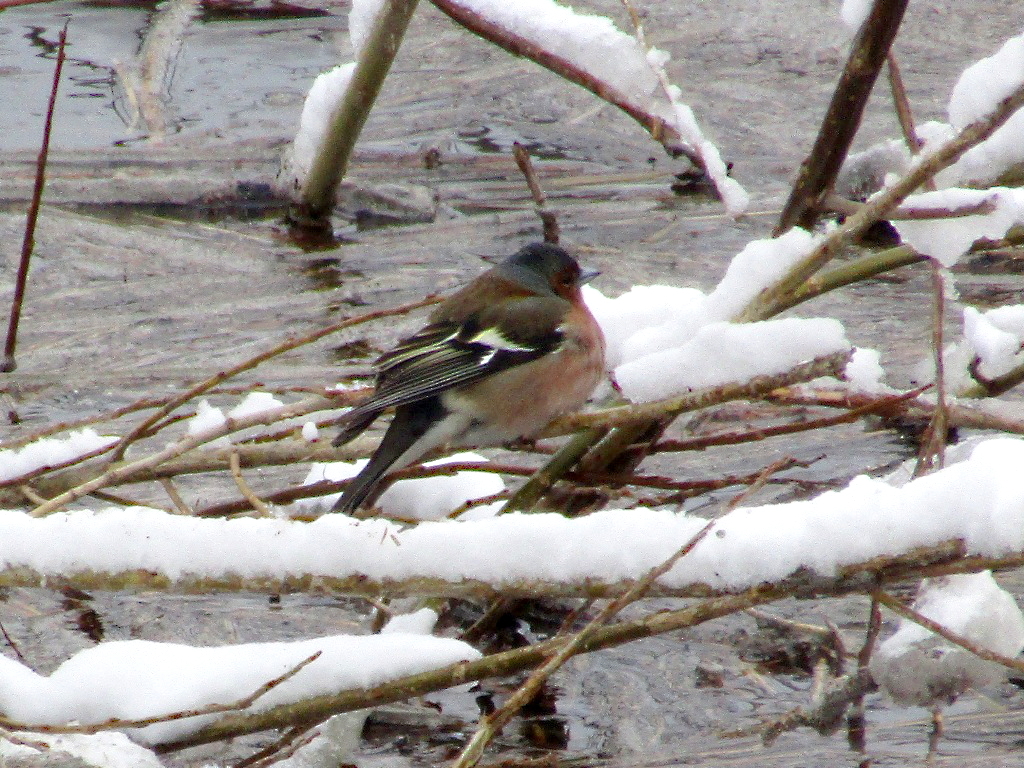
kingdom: Animalia
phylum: Chordata
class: Aves
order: Passeriformes
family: Fringillidae
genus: Fringilla
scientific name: Fringilla coelebs
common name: Common chaffinch
